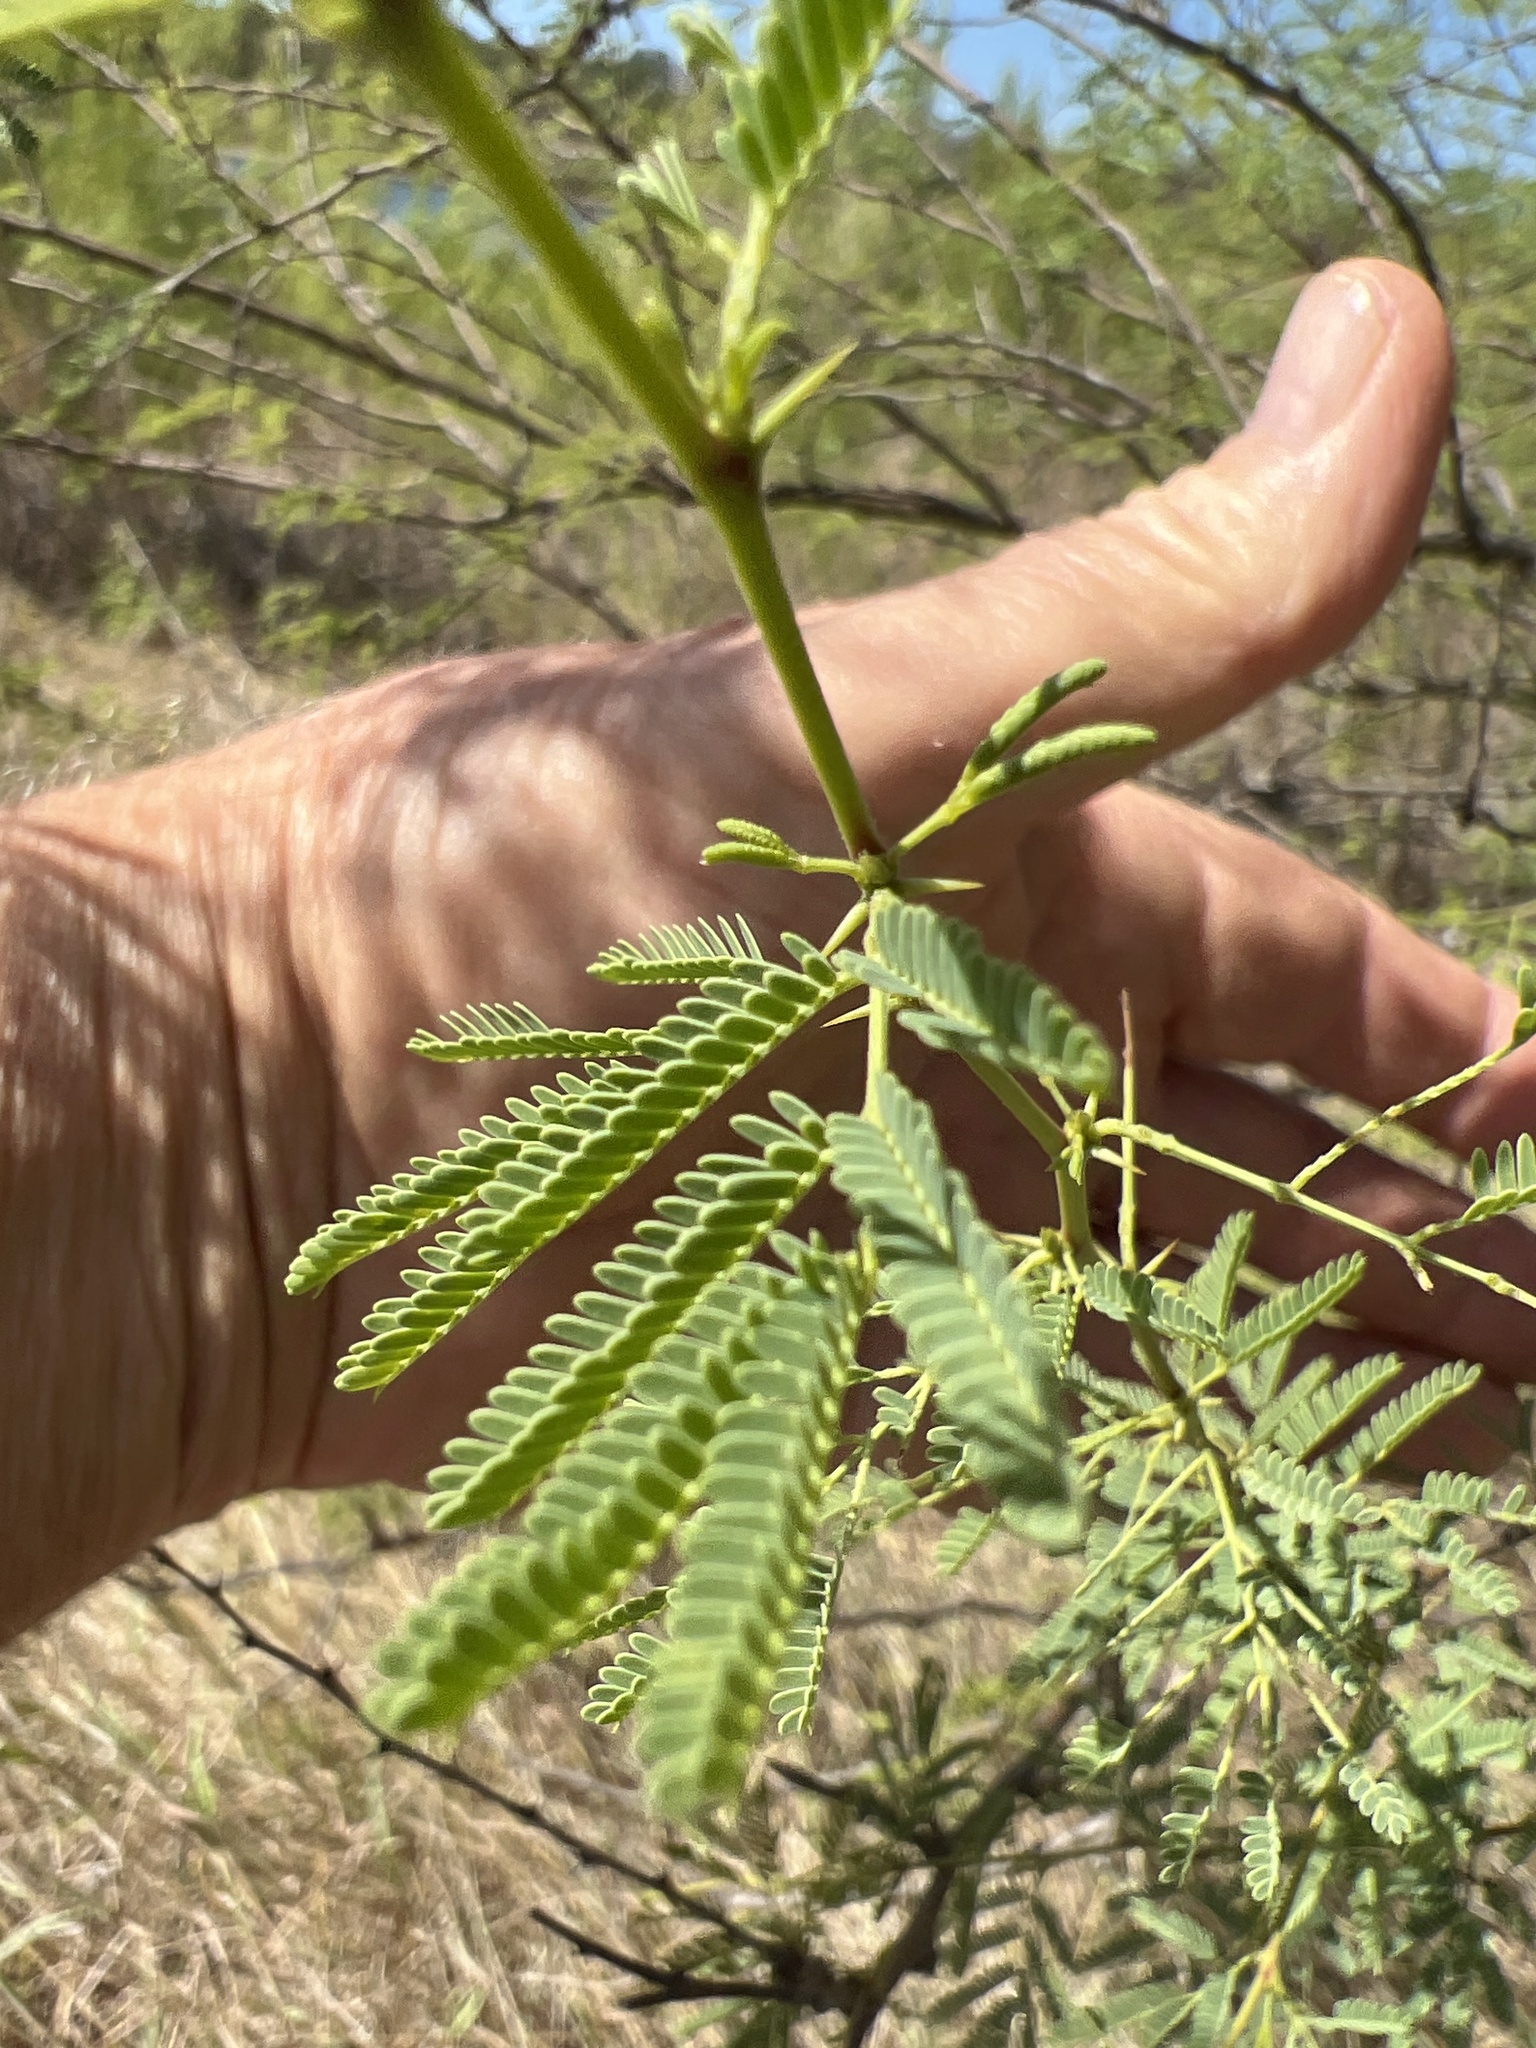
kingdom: Plantae
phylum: Tracheophyta
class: Magnoliopsida
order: Fabales
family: Fabaceae
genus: Vachellia
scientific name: Vachellia farnesiana
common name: Sweet acacia
